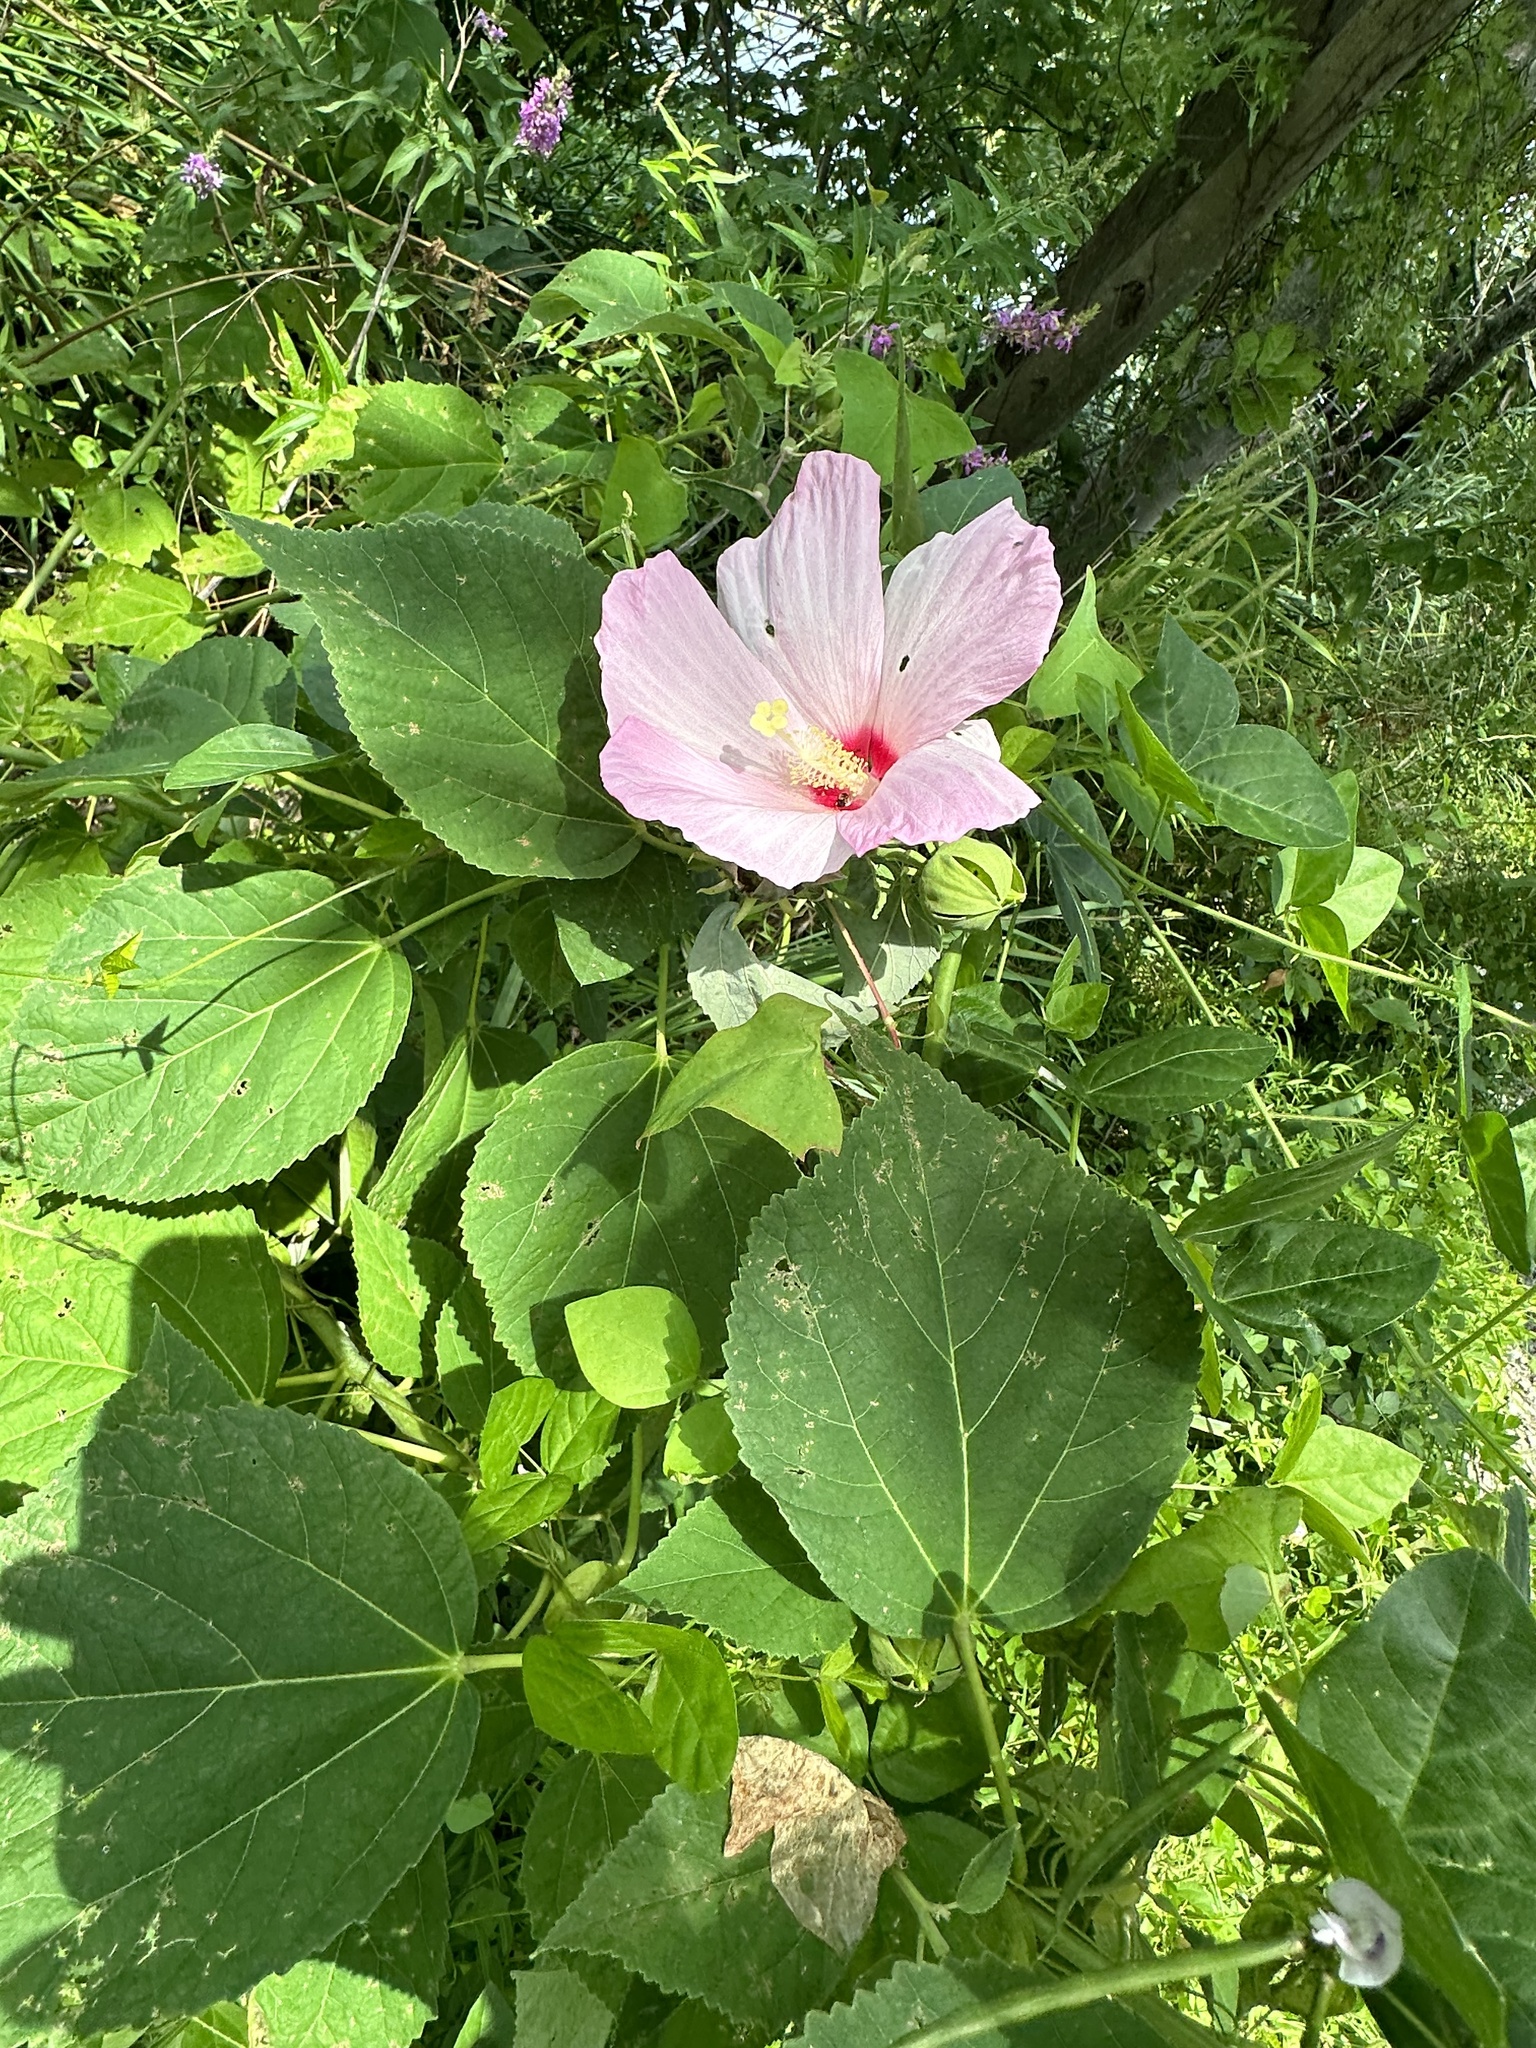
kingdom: Plantae
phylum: Tracheophyta
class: Magnoliopsida
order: Malvales
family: Malvaceae
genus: Hibiscus
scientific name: Hibiscus moscheutos
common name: Common rose-mallow
